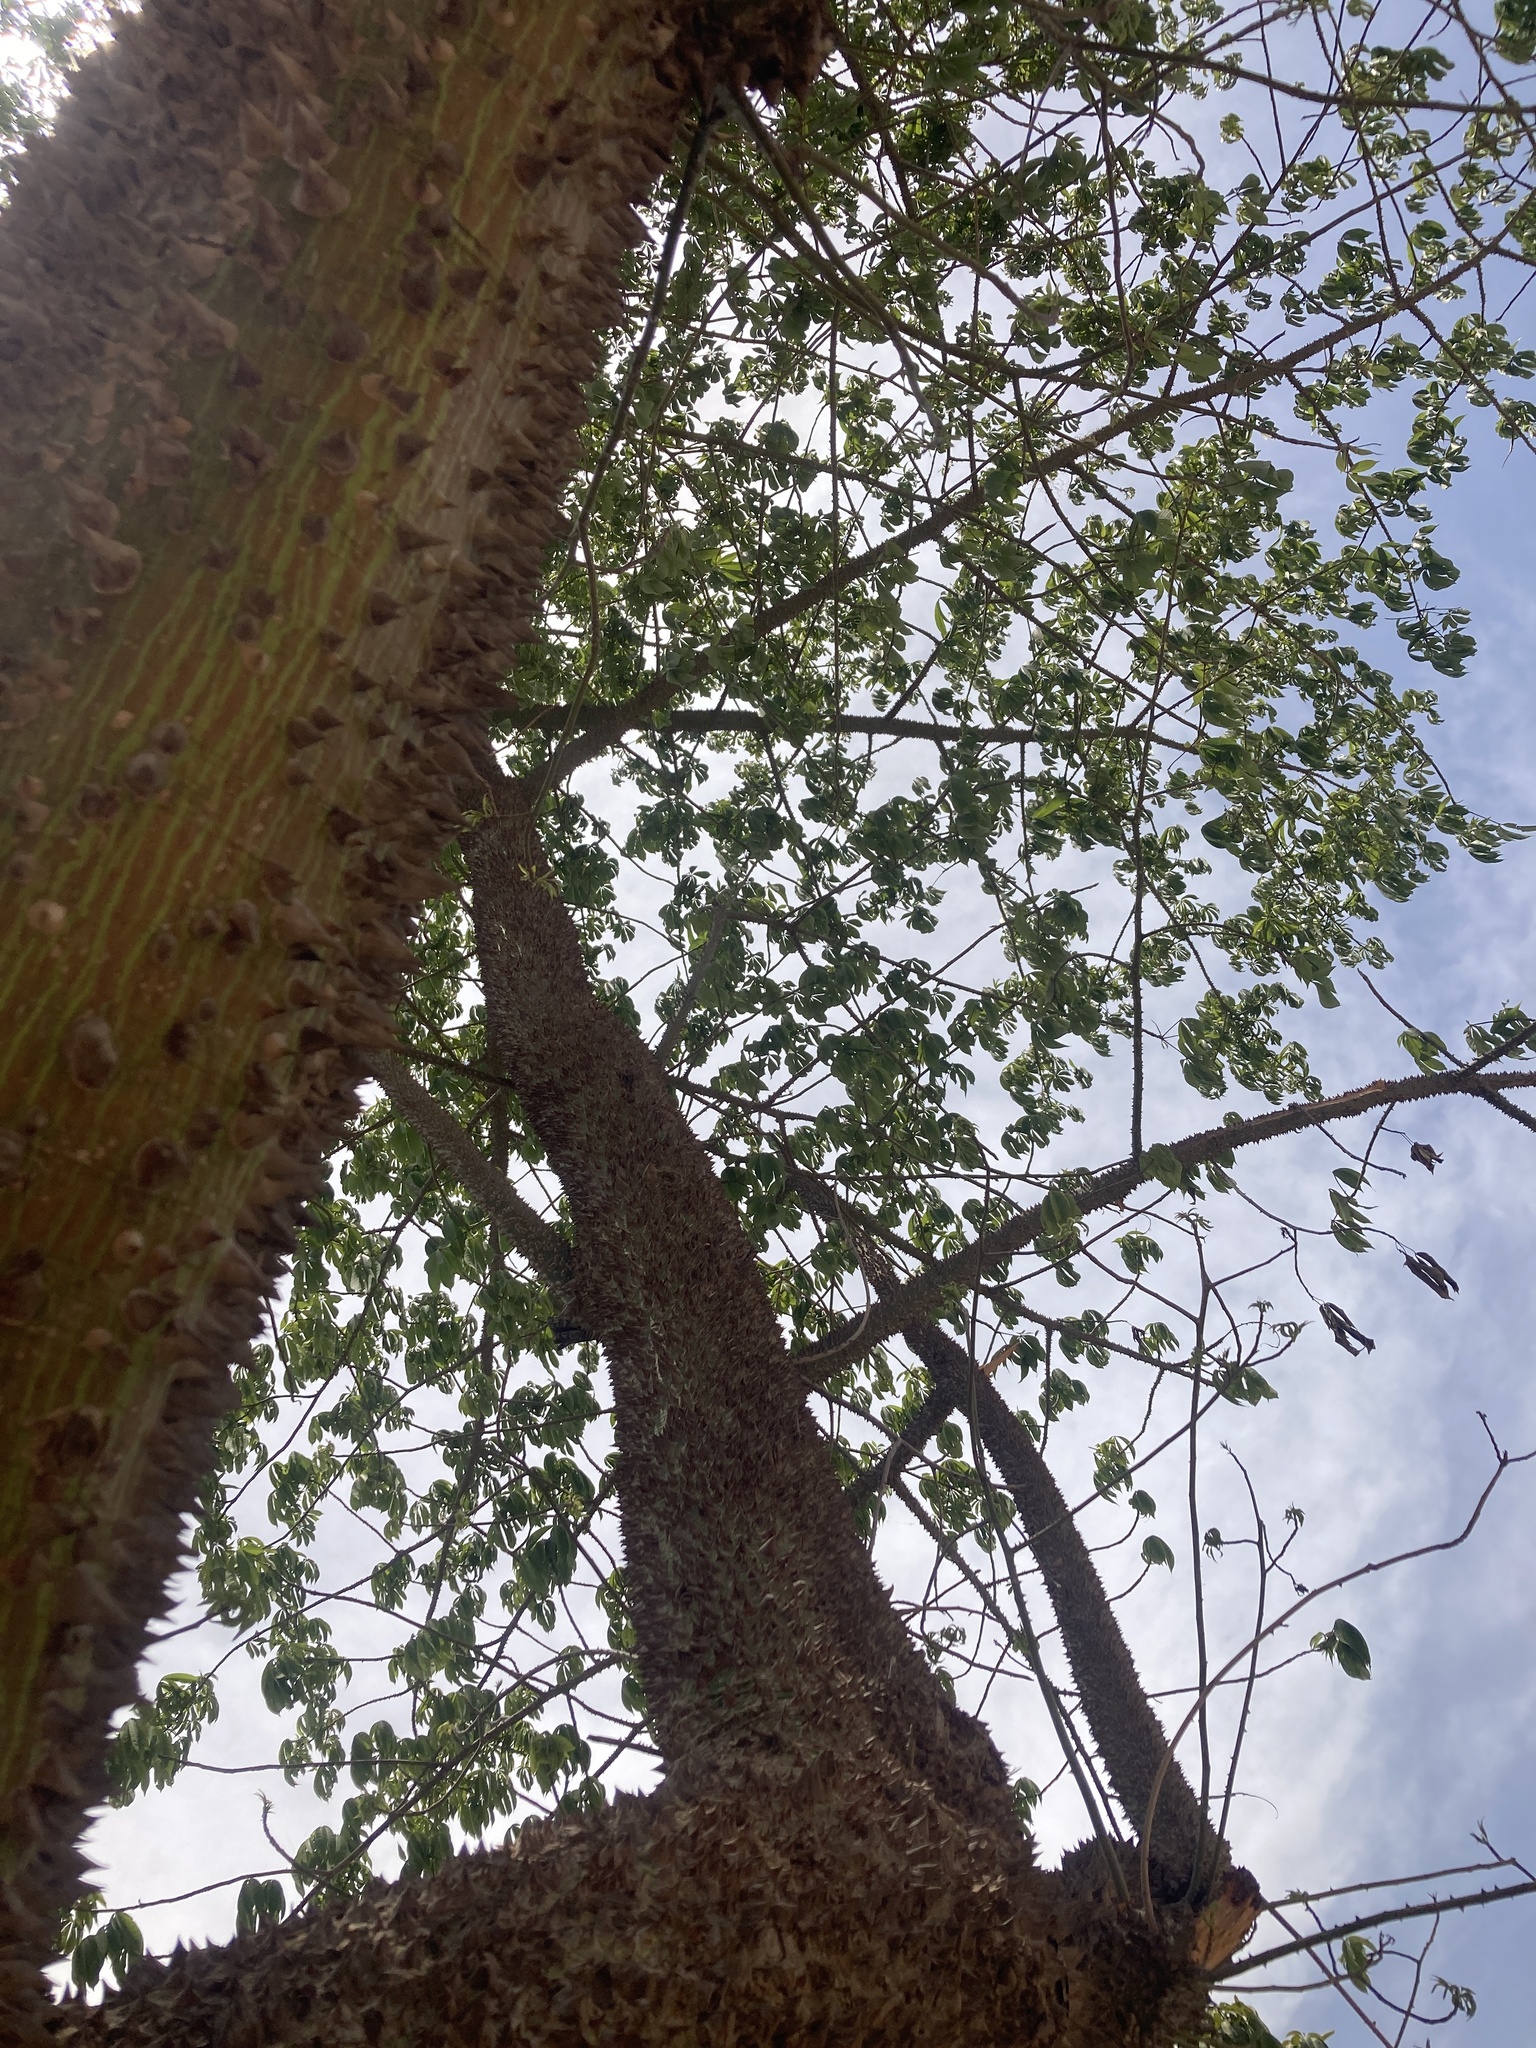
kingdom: Plantae
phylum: Tracheophyta
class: Magnoliopsida
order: Malvales
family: Malvaceae
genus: Ceiba
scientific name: Ceiba pentandra
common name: Kapok
